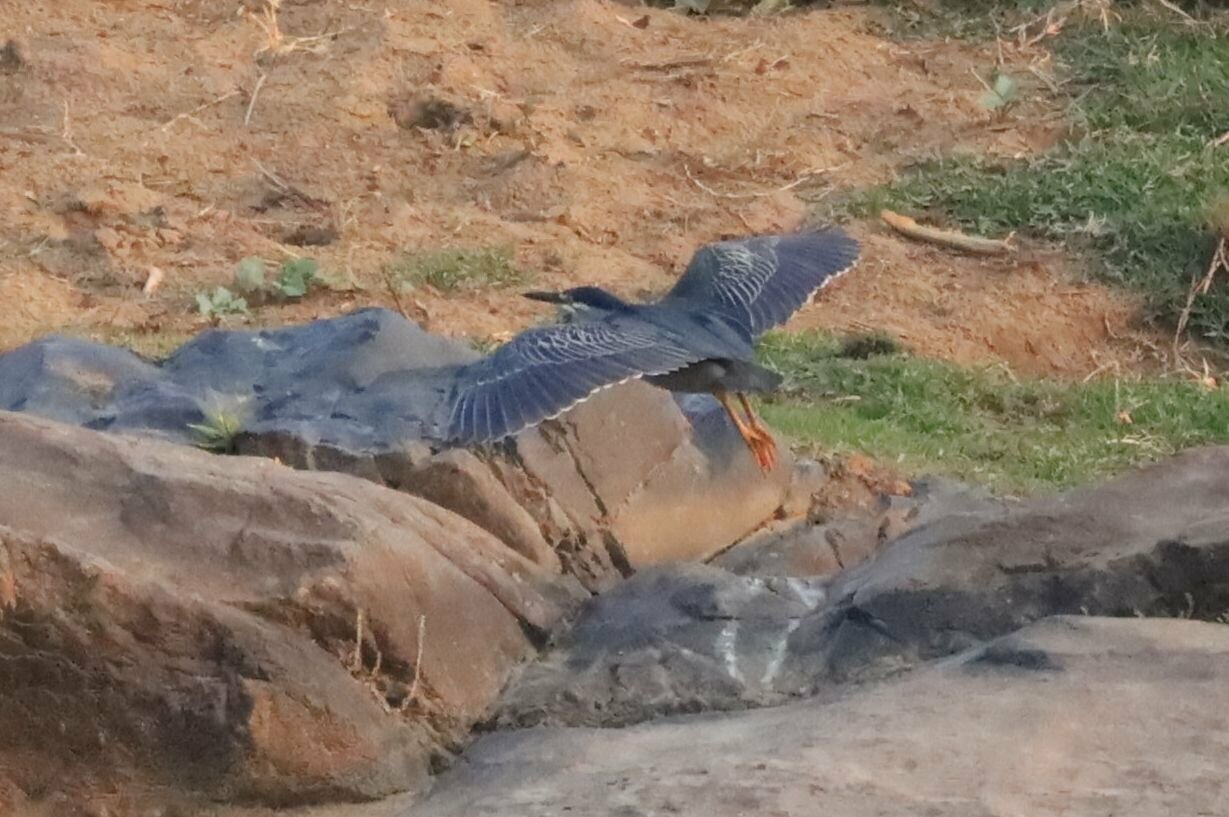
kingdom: Animalia
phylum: Chordata
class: Aves
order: Pelecaniformes
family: Ardeidae
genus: Butorides
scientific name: Butorides striata
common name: Striated heron
